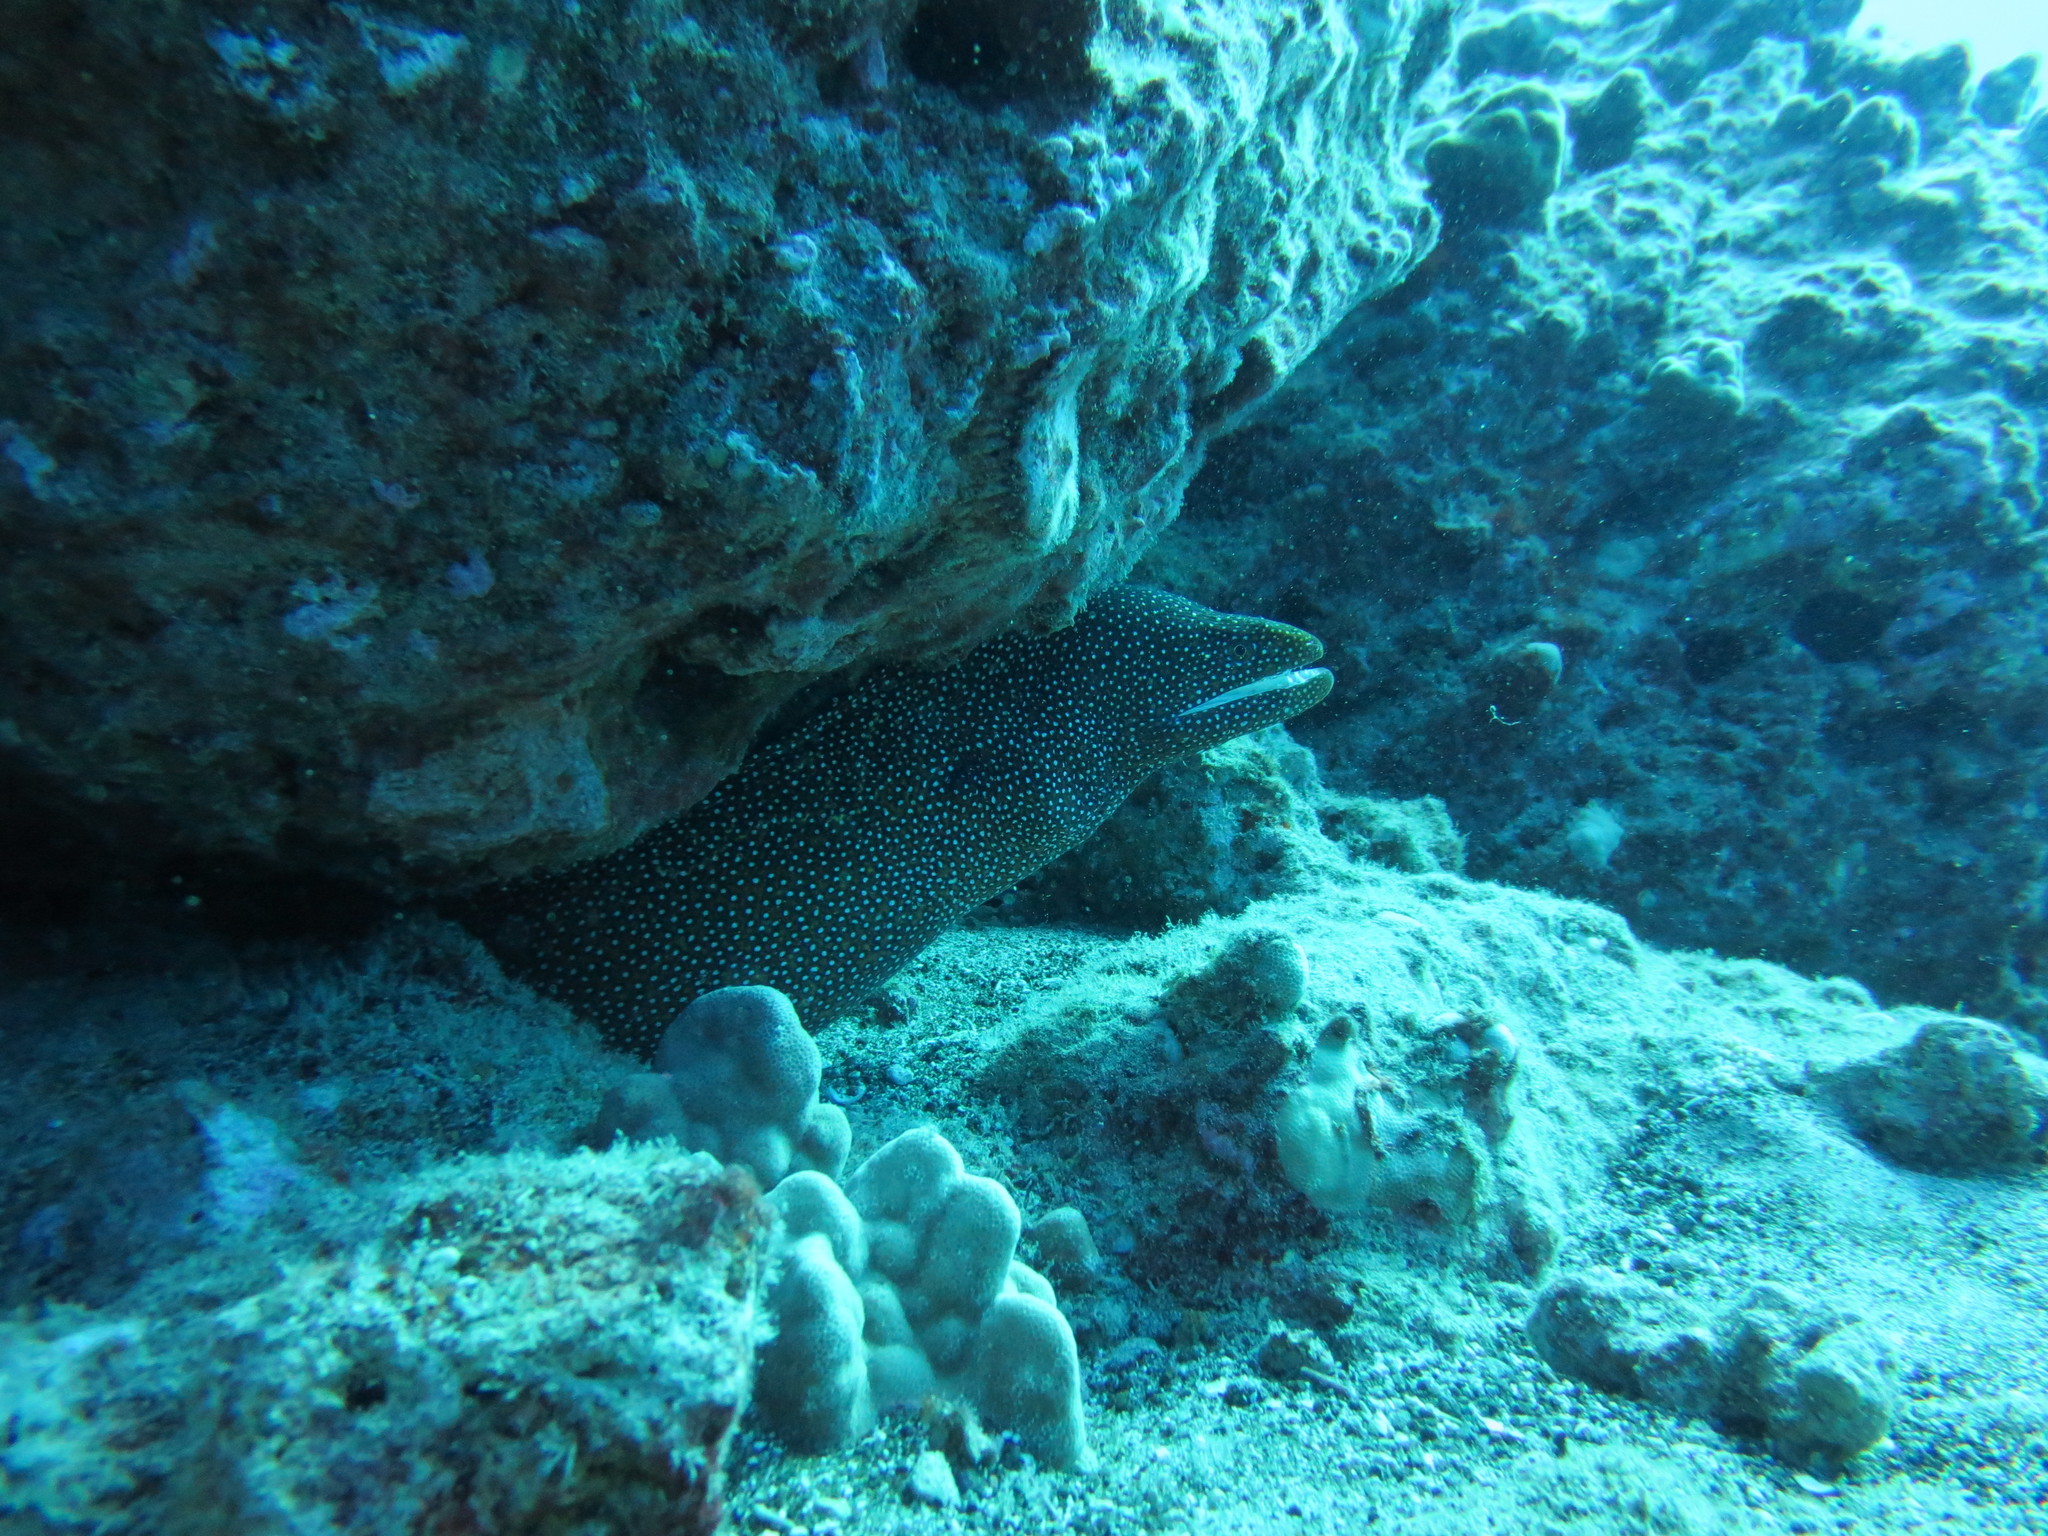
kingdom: Animalia
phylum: Chordata
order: Anguilliformes
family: Muraenidae
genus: Gymnothorax
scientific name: Gymnothorax meleagris
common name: Guineafowl moray
